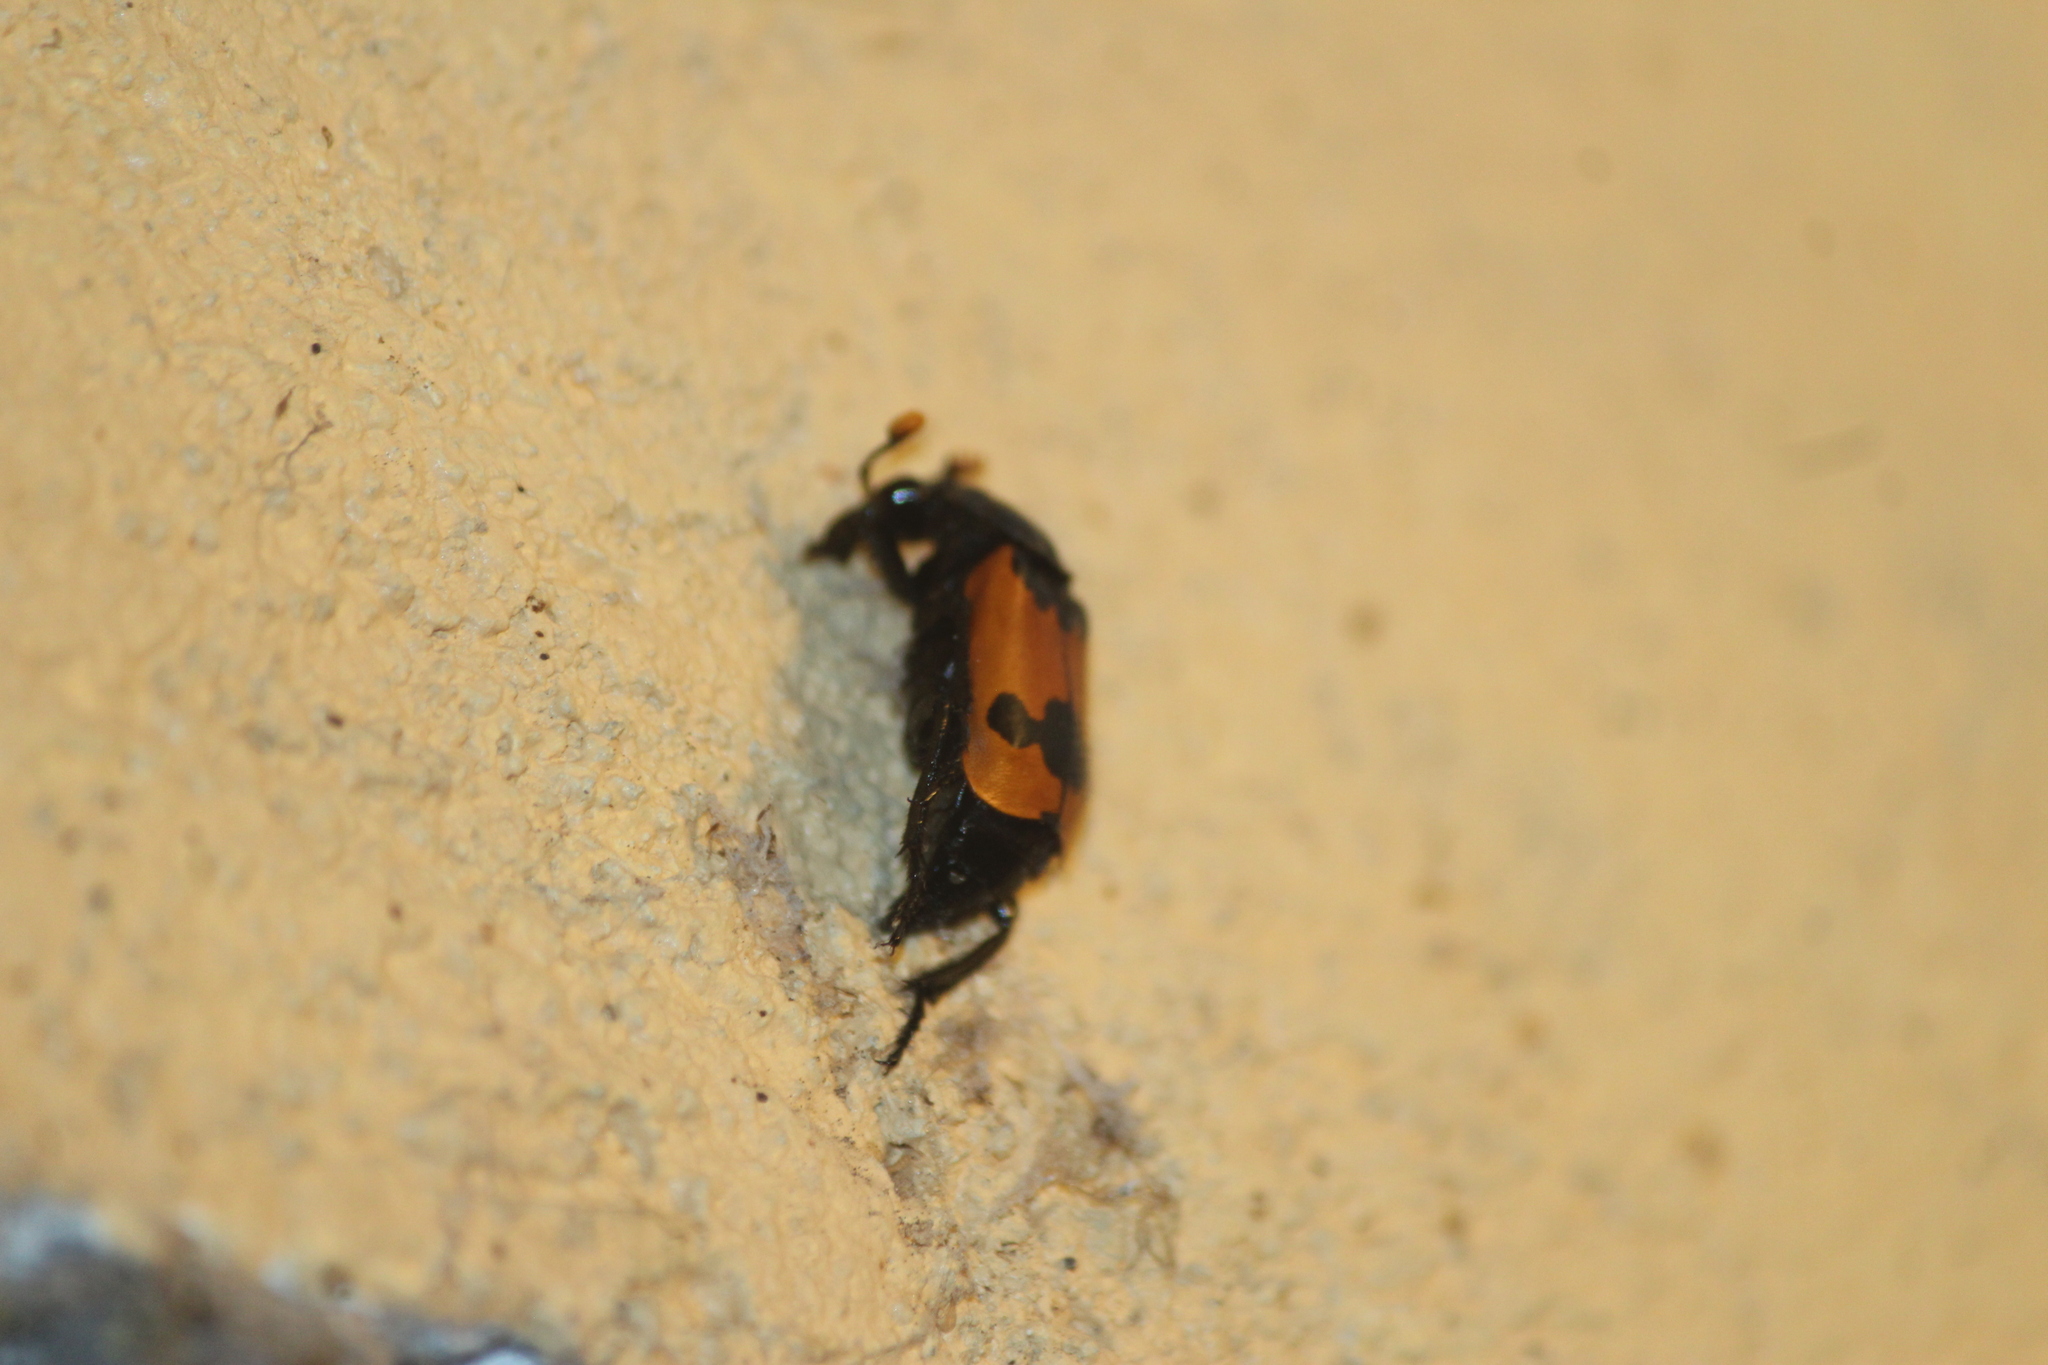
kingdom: Animalia
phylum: Arthropoda
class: Insecta
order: Coleoptera
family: Staphylinidae
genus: Nicrophorus
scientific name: Nicrophorus olidus
